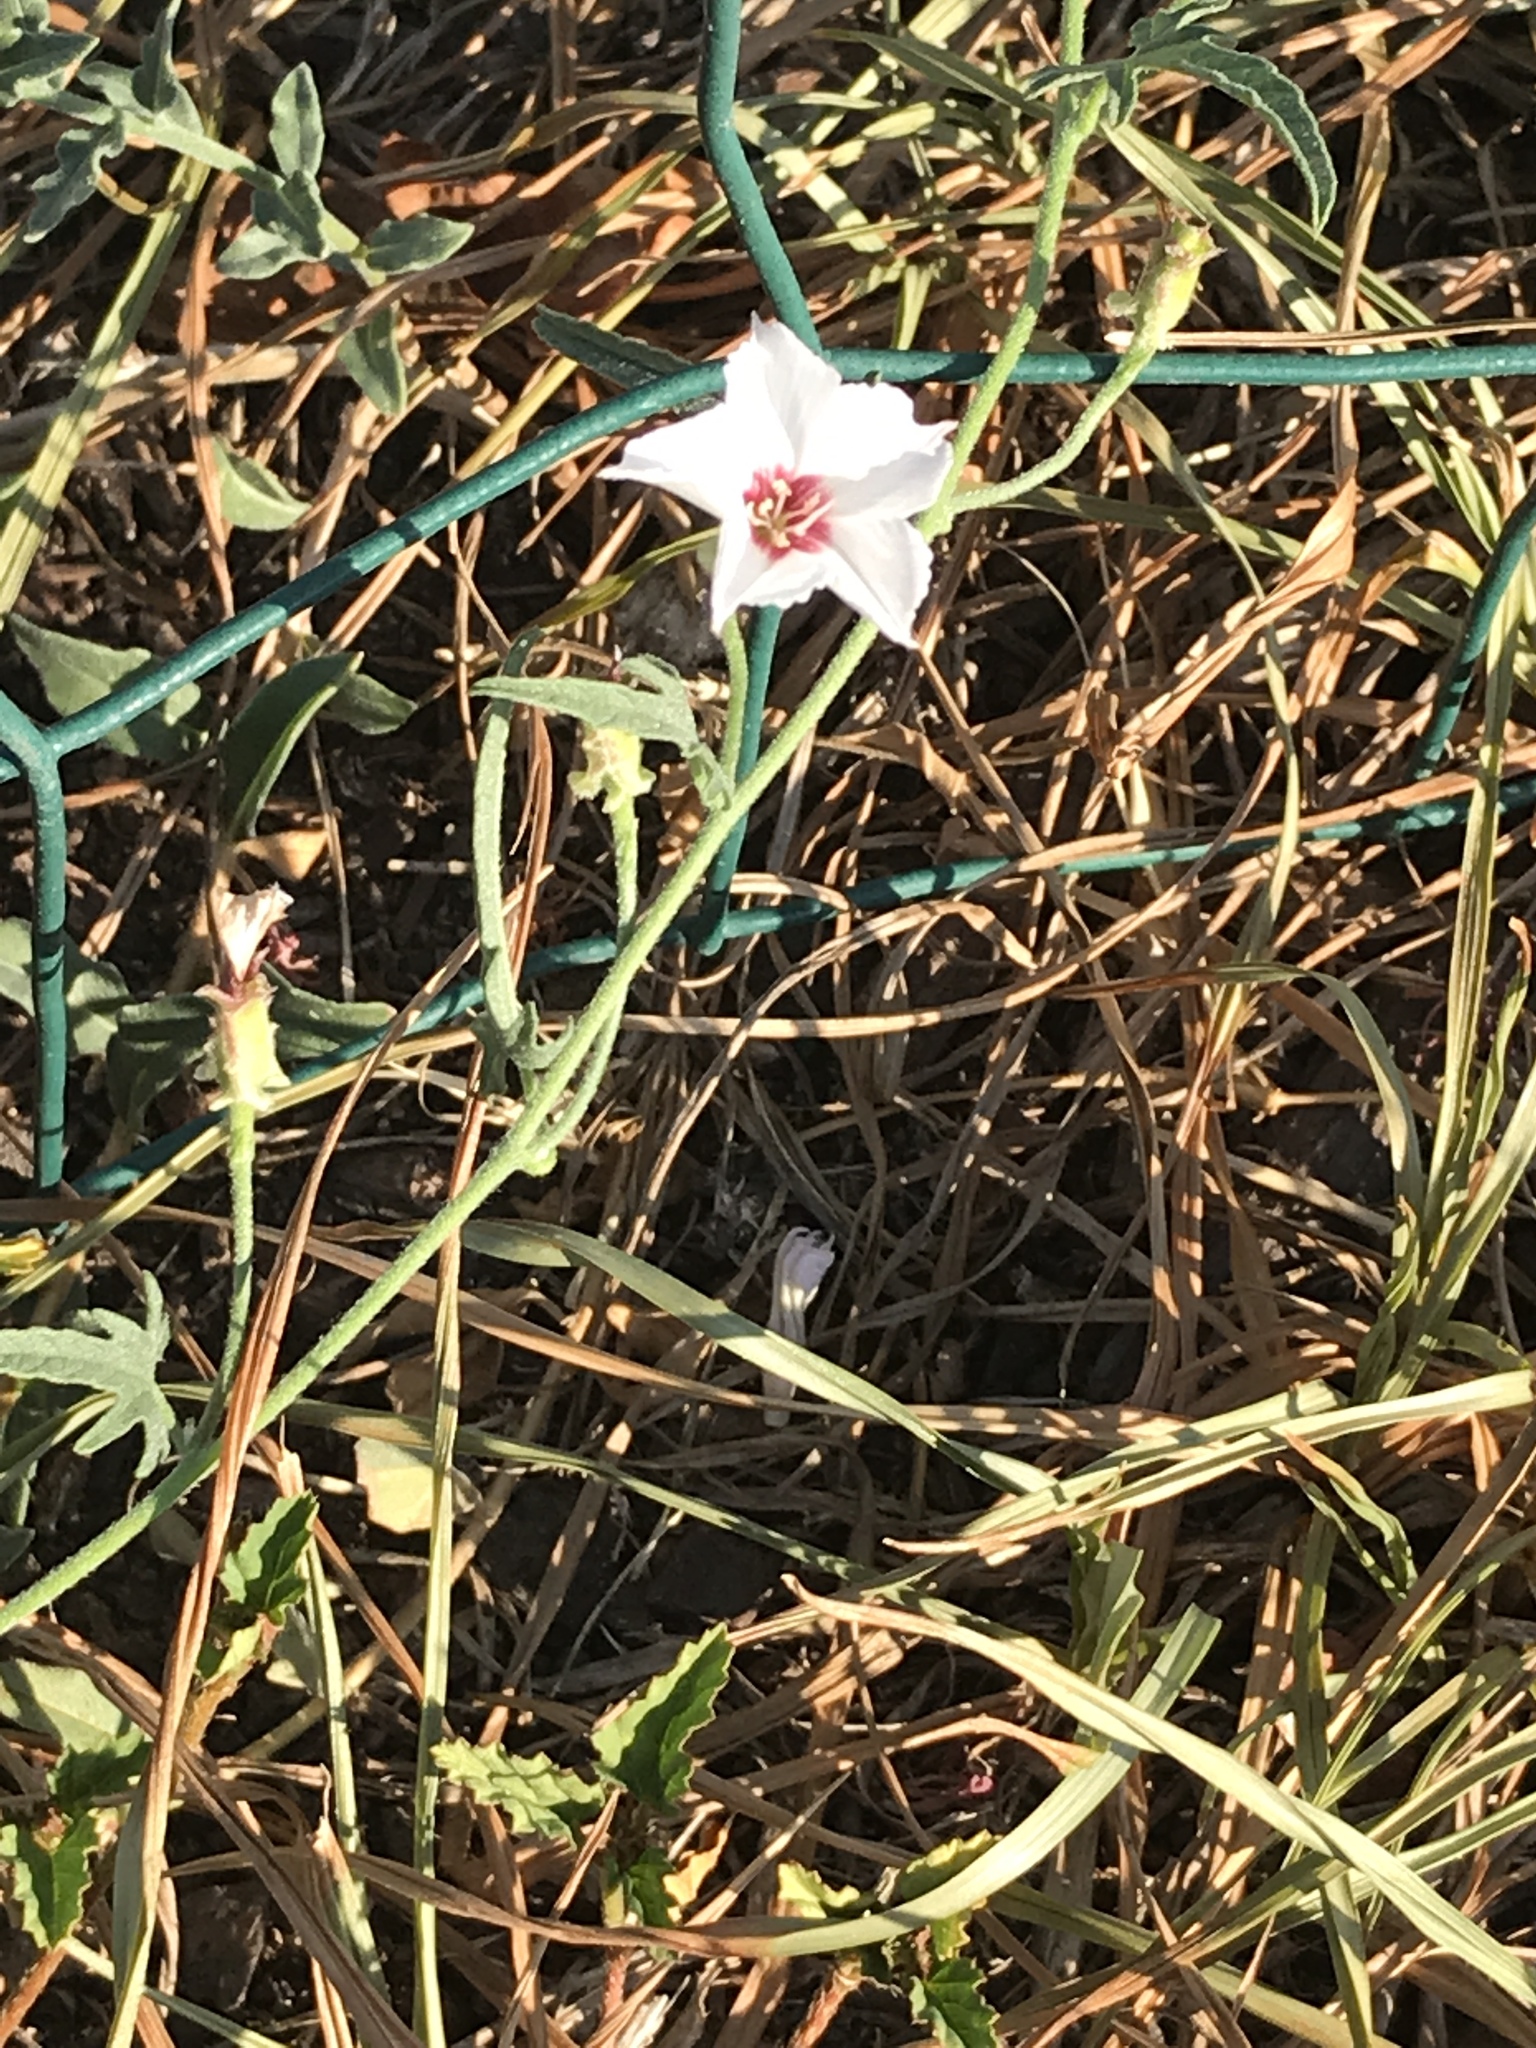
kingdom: Plantae
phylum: Tracheophyta
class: Magnoliopsida
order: Solanales
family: Convolvulaceae
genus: Convolvulus
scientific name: Convolvulus equitans
